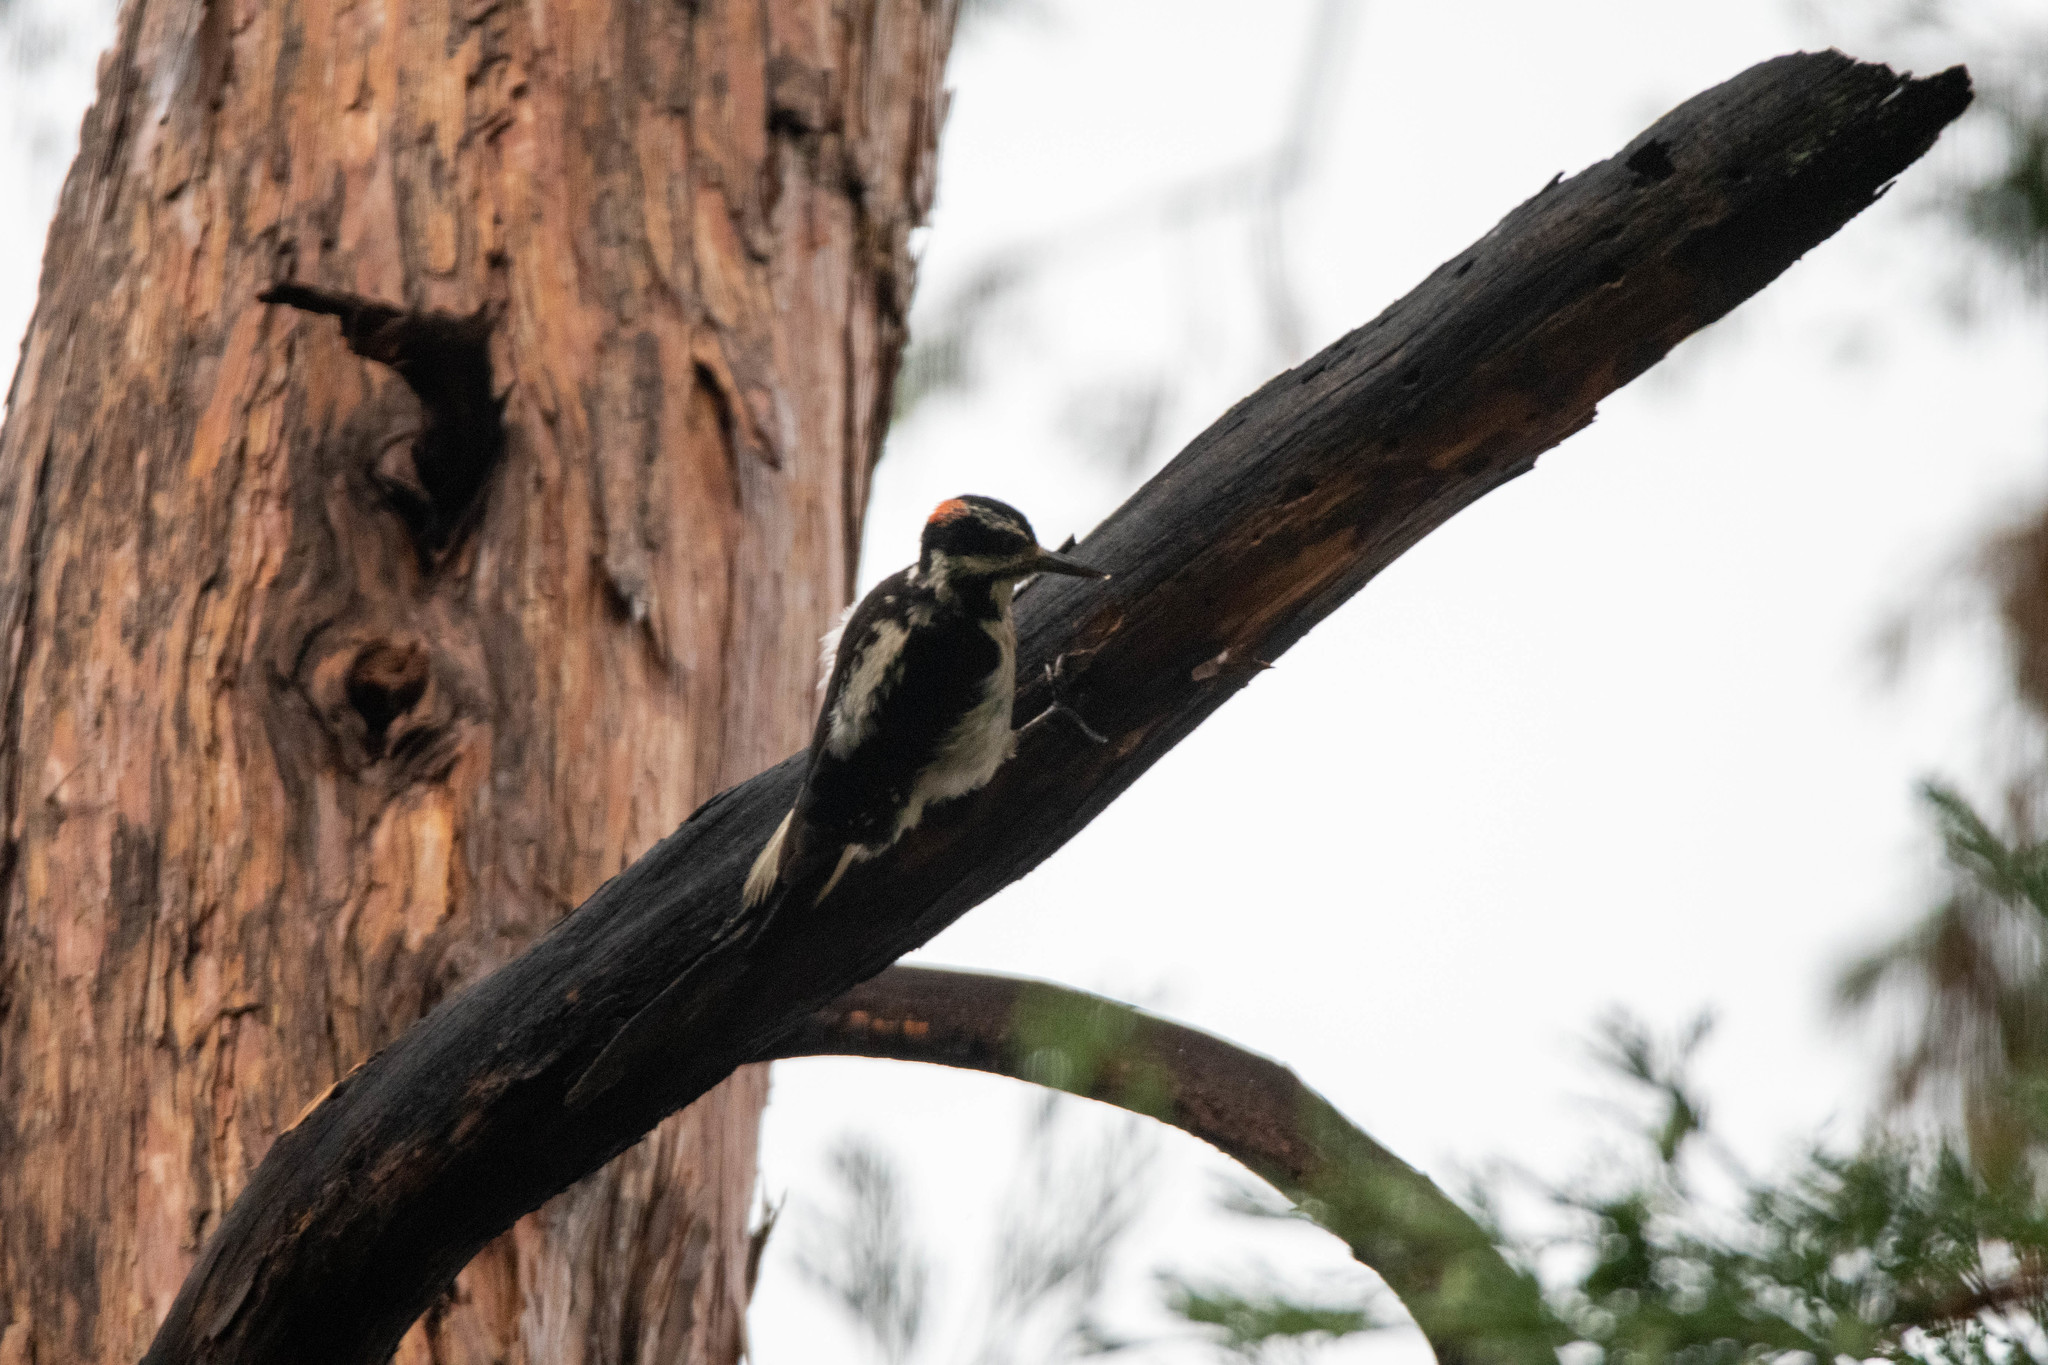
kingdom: Animalia
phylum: Chordata
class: Aves
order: Piciformes
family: Picidae
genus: Leuconotopicus
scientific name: Leuconotopicus villosus
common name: Hairy woodpecker
